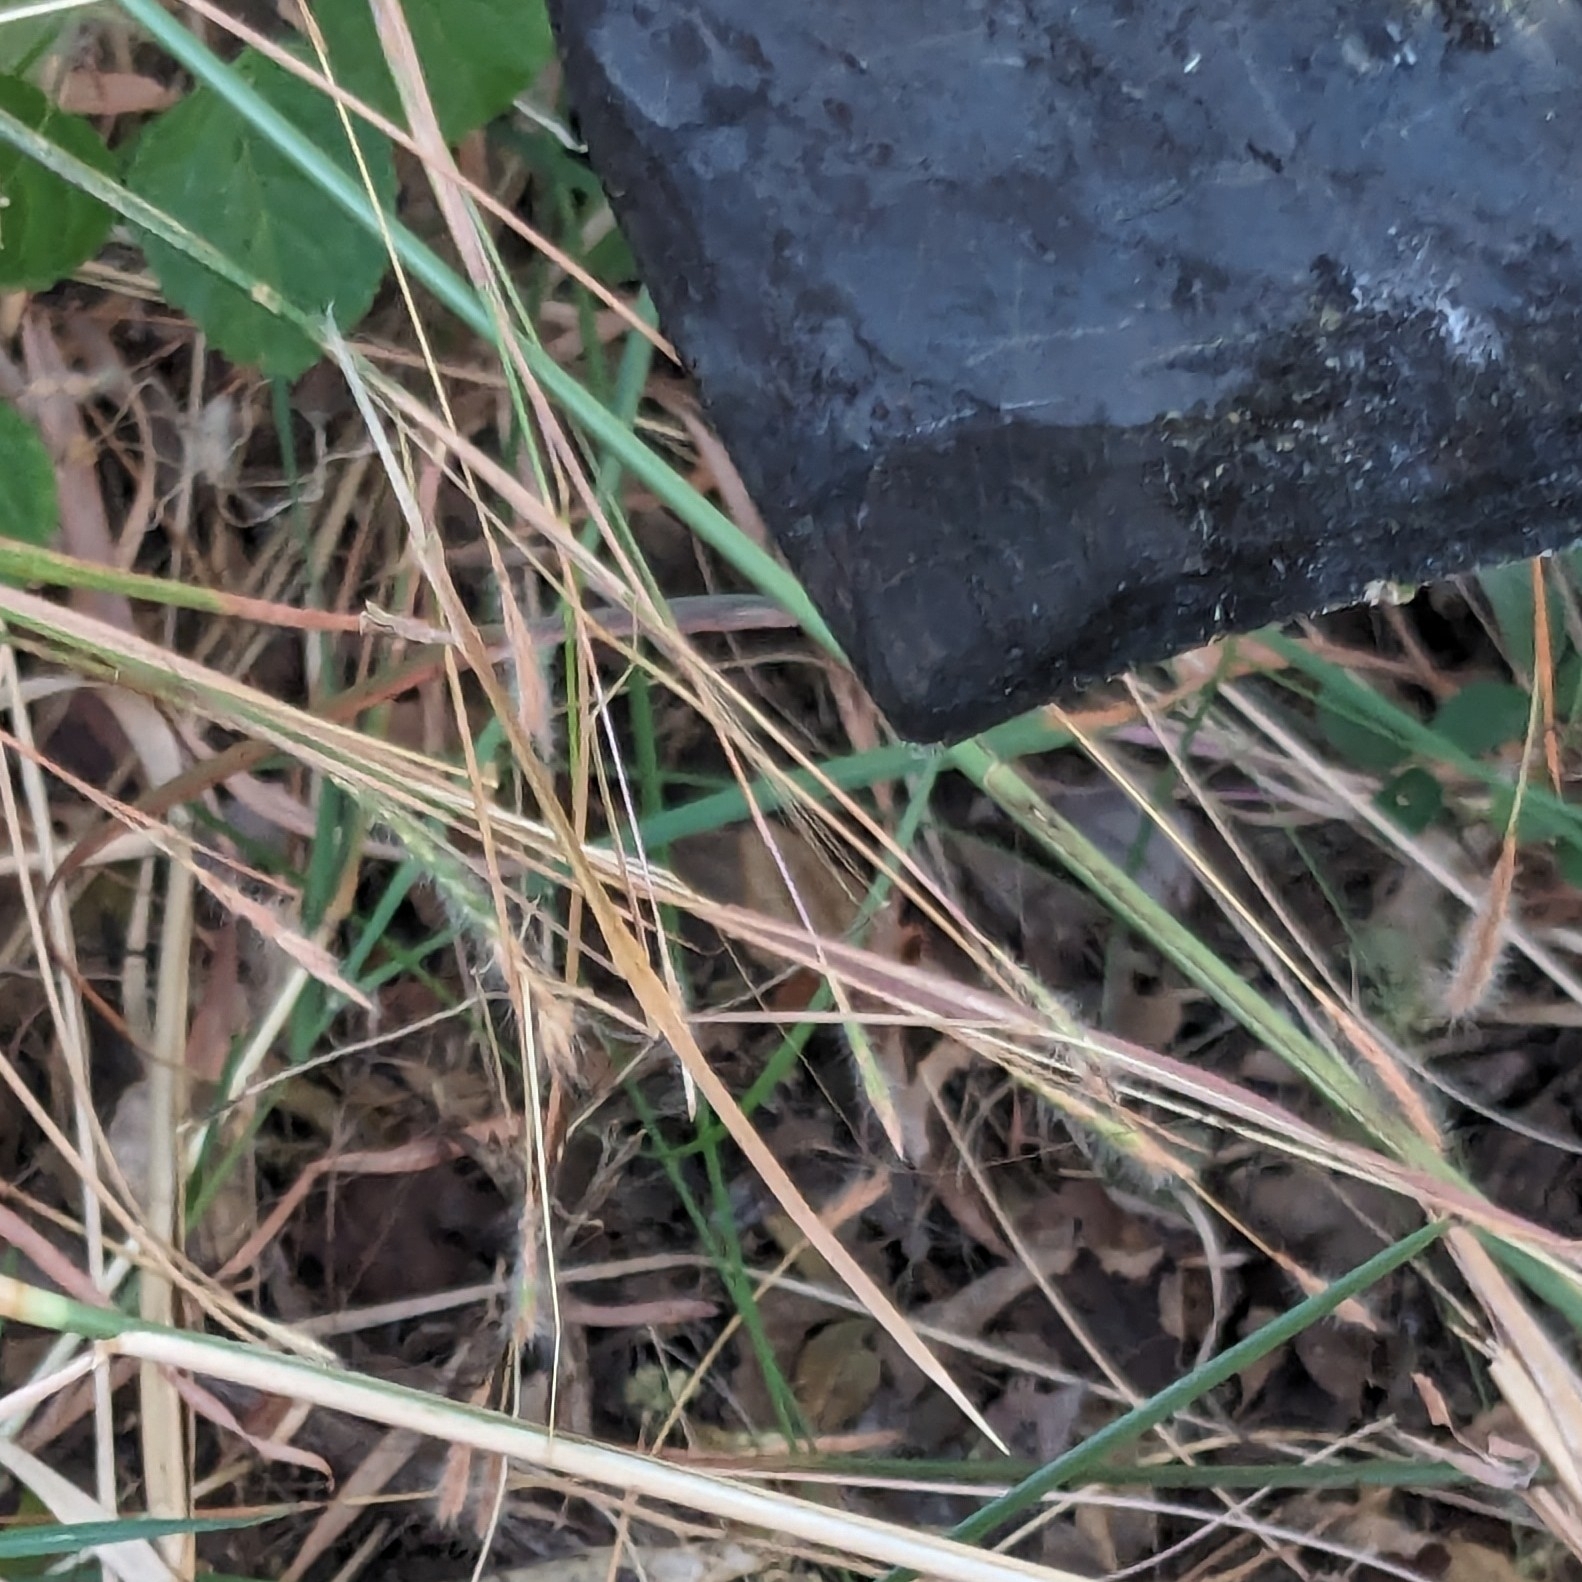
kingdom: Animalia
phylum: Arthropoda
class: Insecta
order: Mantodea
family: Eremiaphilidae
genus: Schizocephala
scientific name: Schizocephala bicornis
